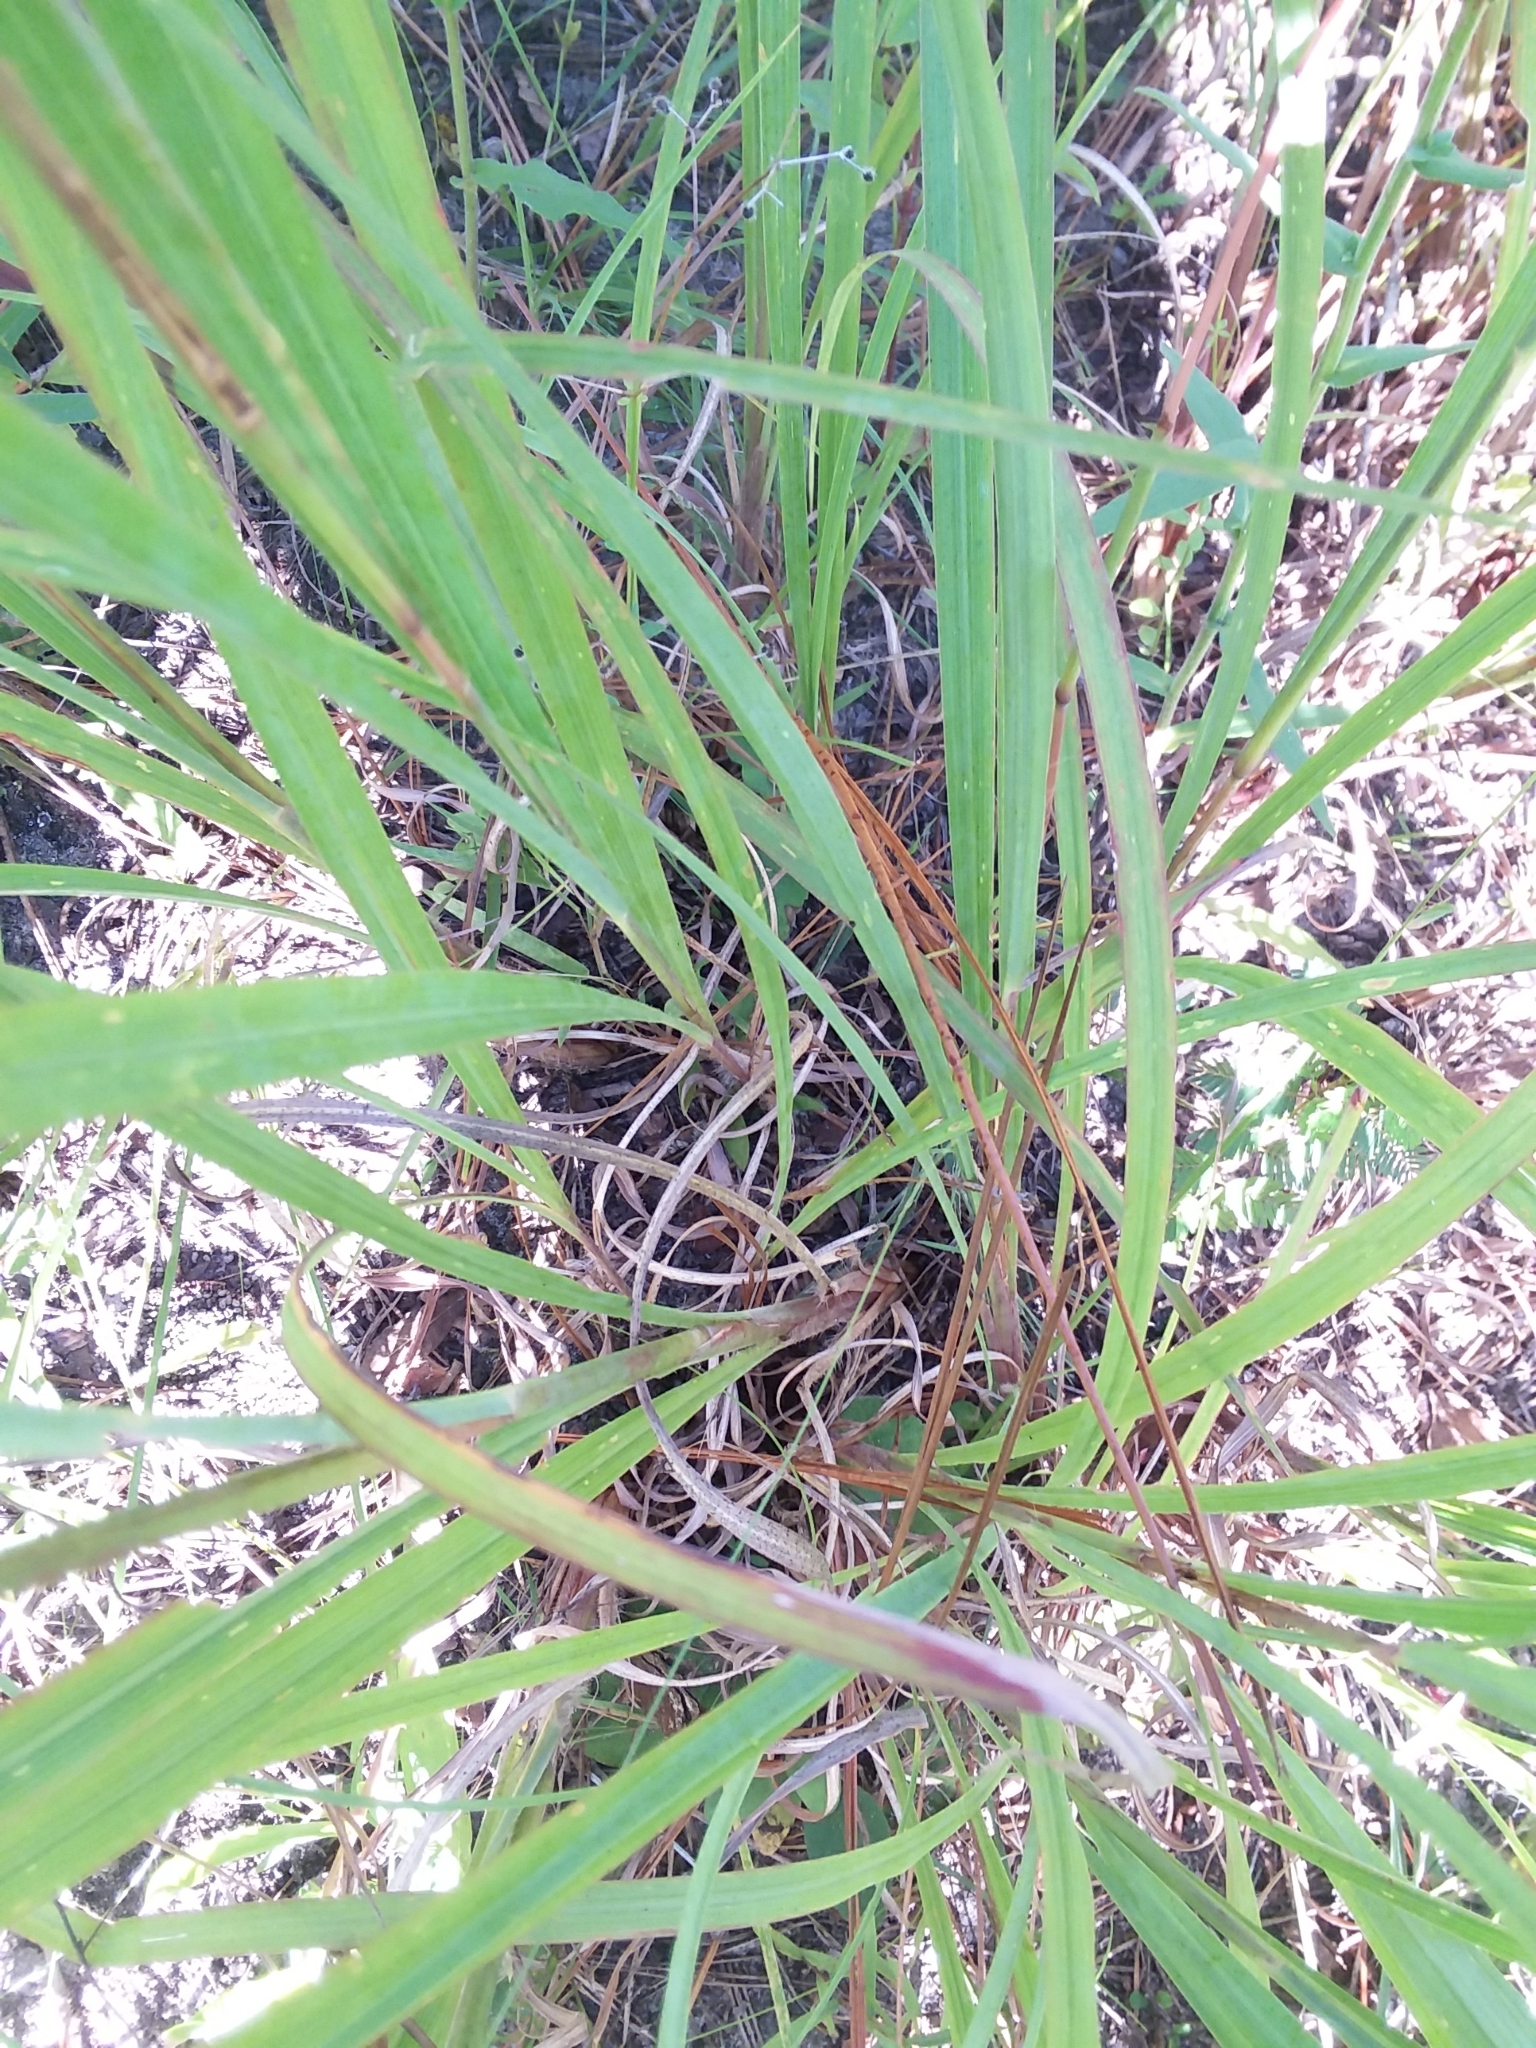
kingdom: Plantae
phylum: Tracheophyta
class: Liliopsida
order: Poales
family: Poaceae
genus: Andropogon
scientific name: Andropogon gerardi
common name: Big bluestem
